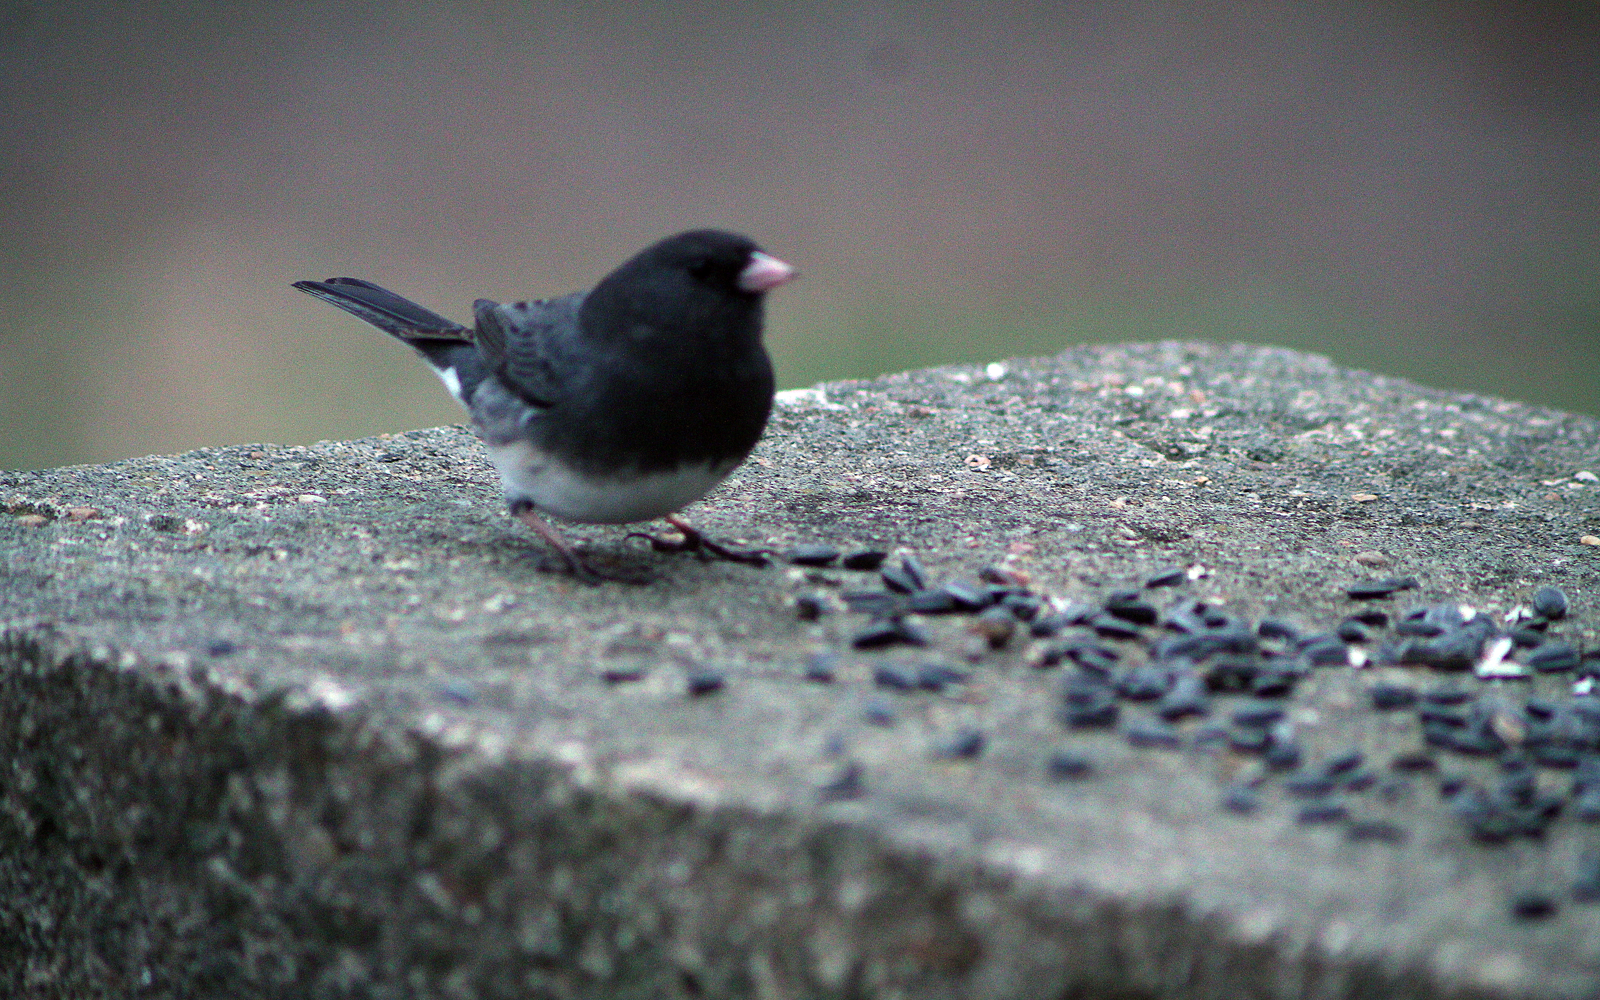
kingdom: Animalia
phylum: Chordata
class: Aves
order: Passeriformes
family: Passerellidae
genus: Junco
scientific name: Junco hyemalis
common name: Dark-eyed junco
